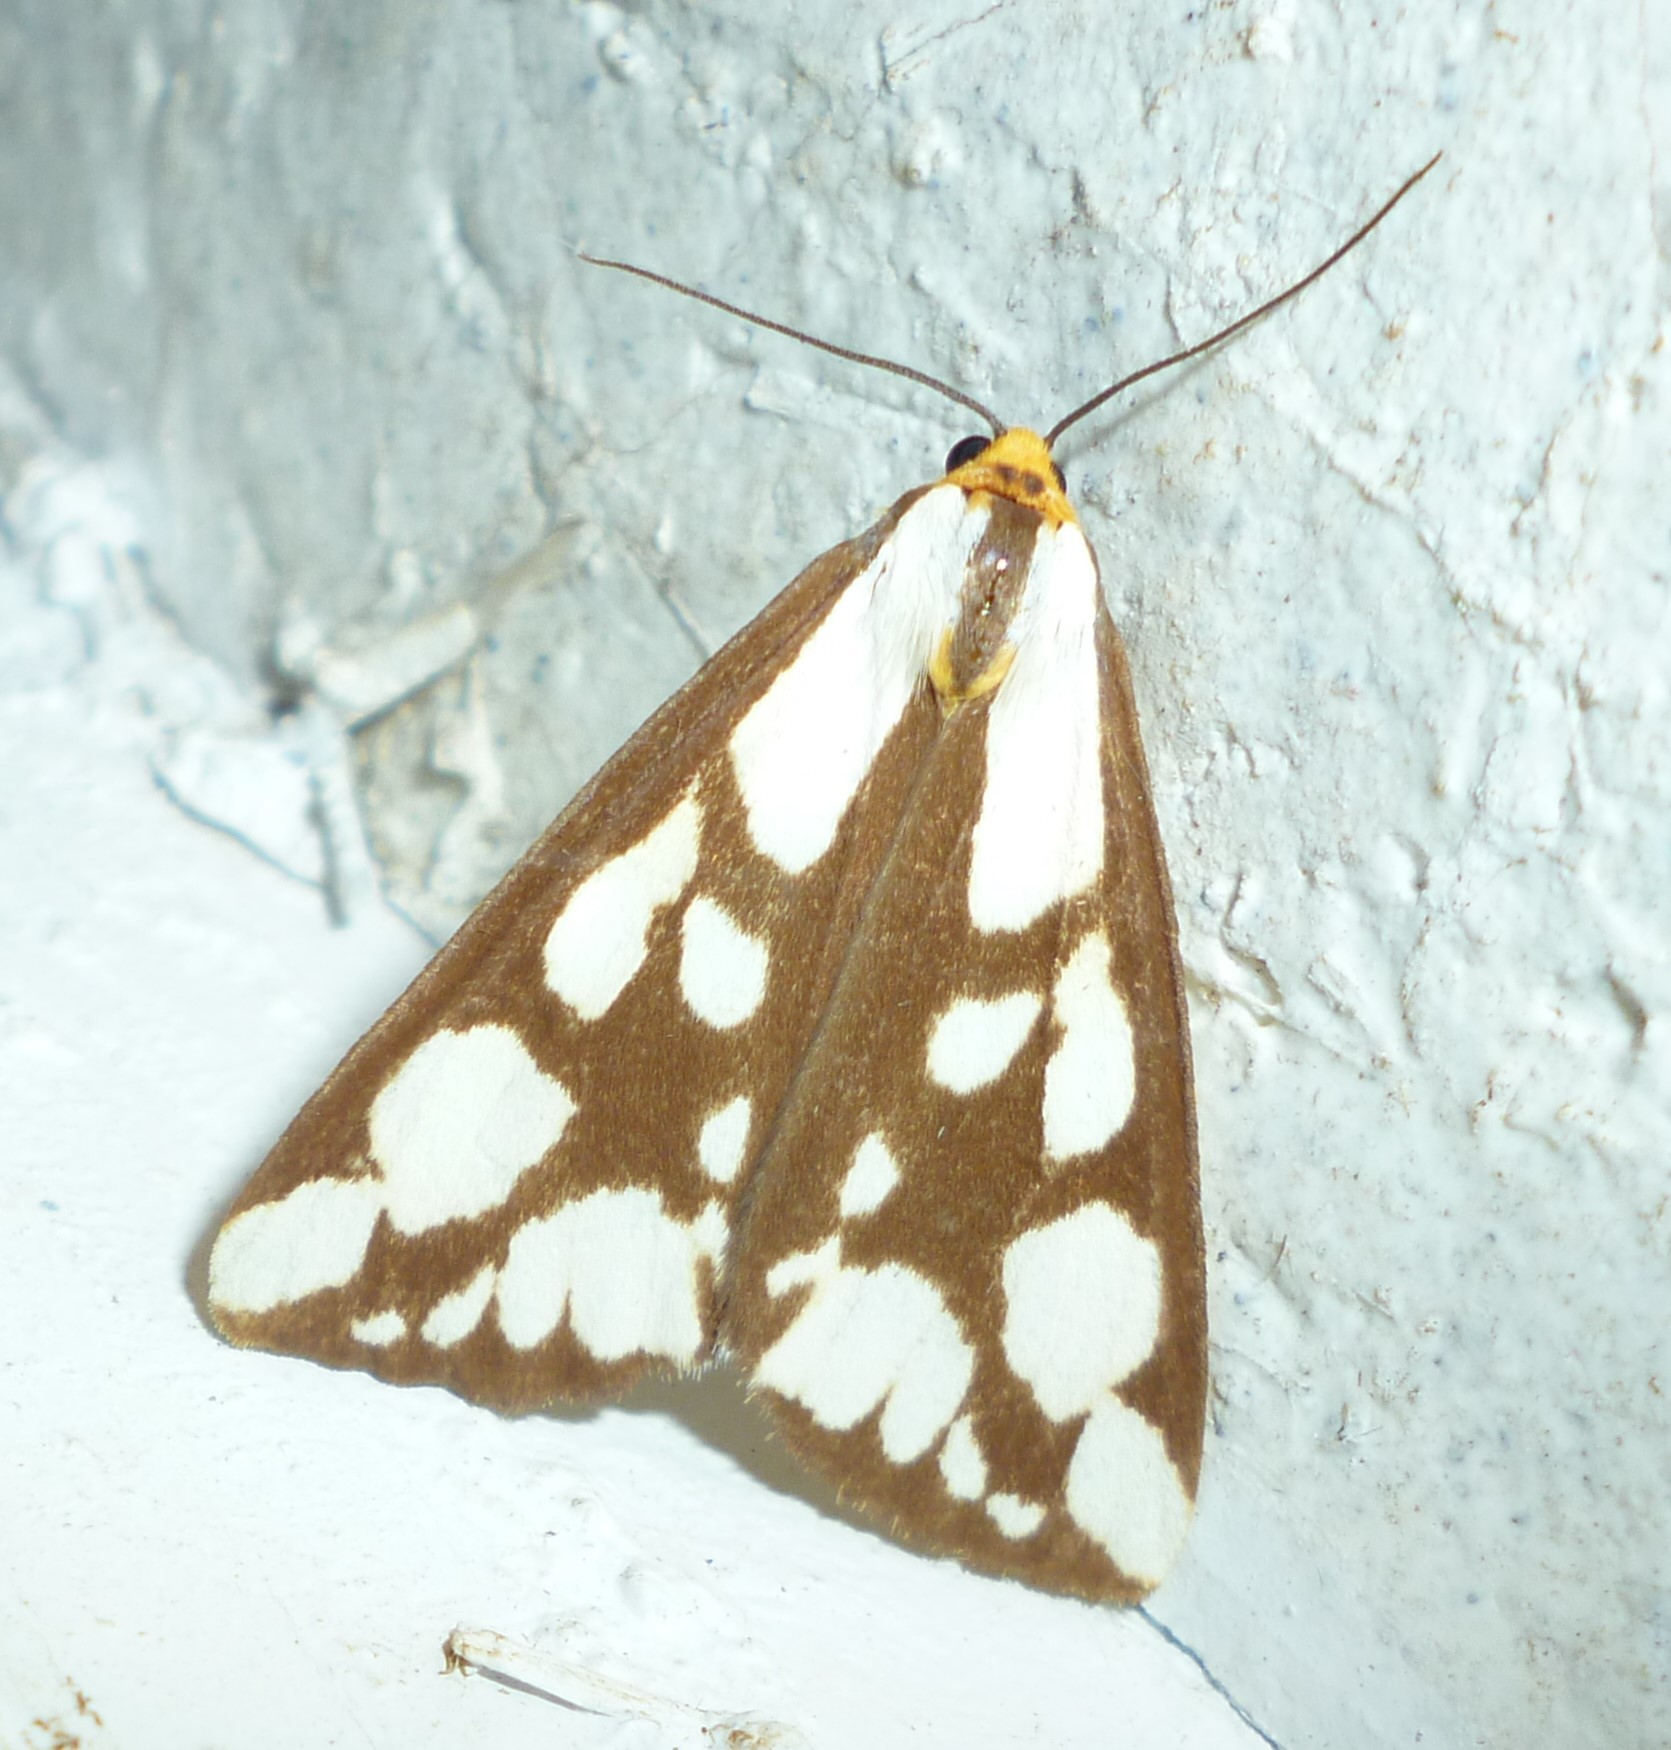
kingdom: Animalia
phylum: Arthropoda
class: Insecta
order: Lepidoptera
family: Erebidae
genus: Haploa
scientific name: Haploa confusa
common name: Confused haploa moth
